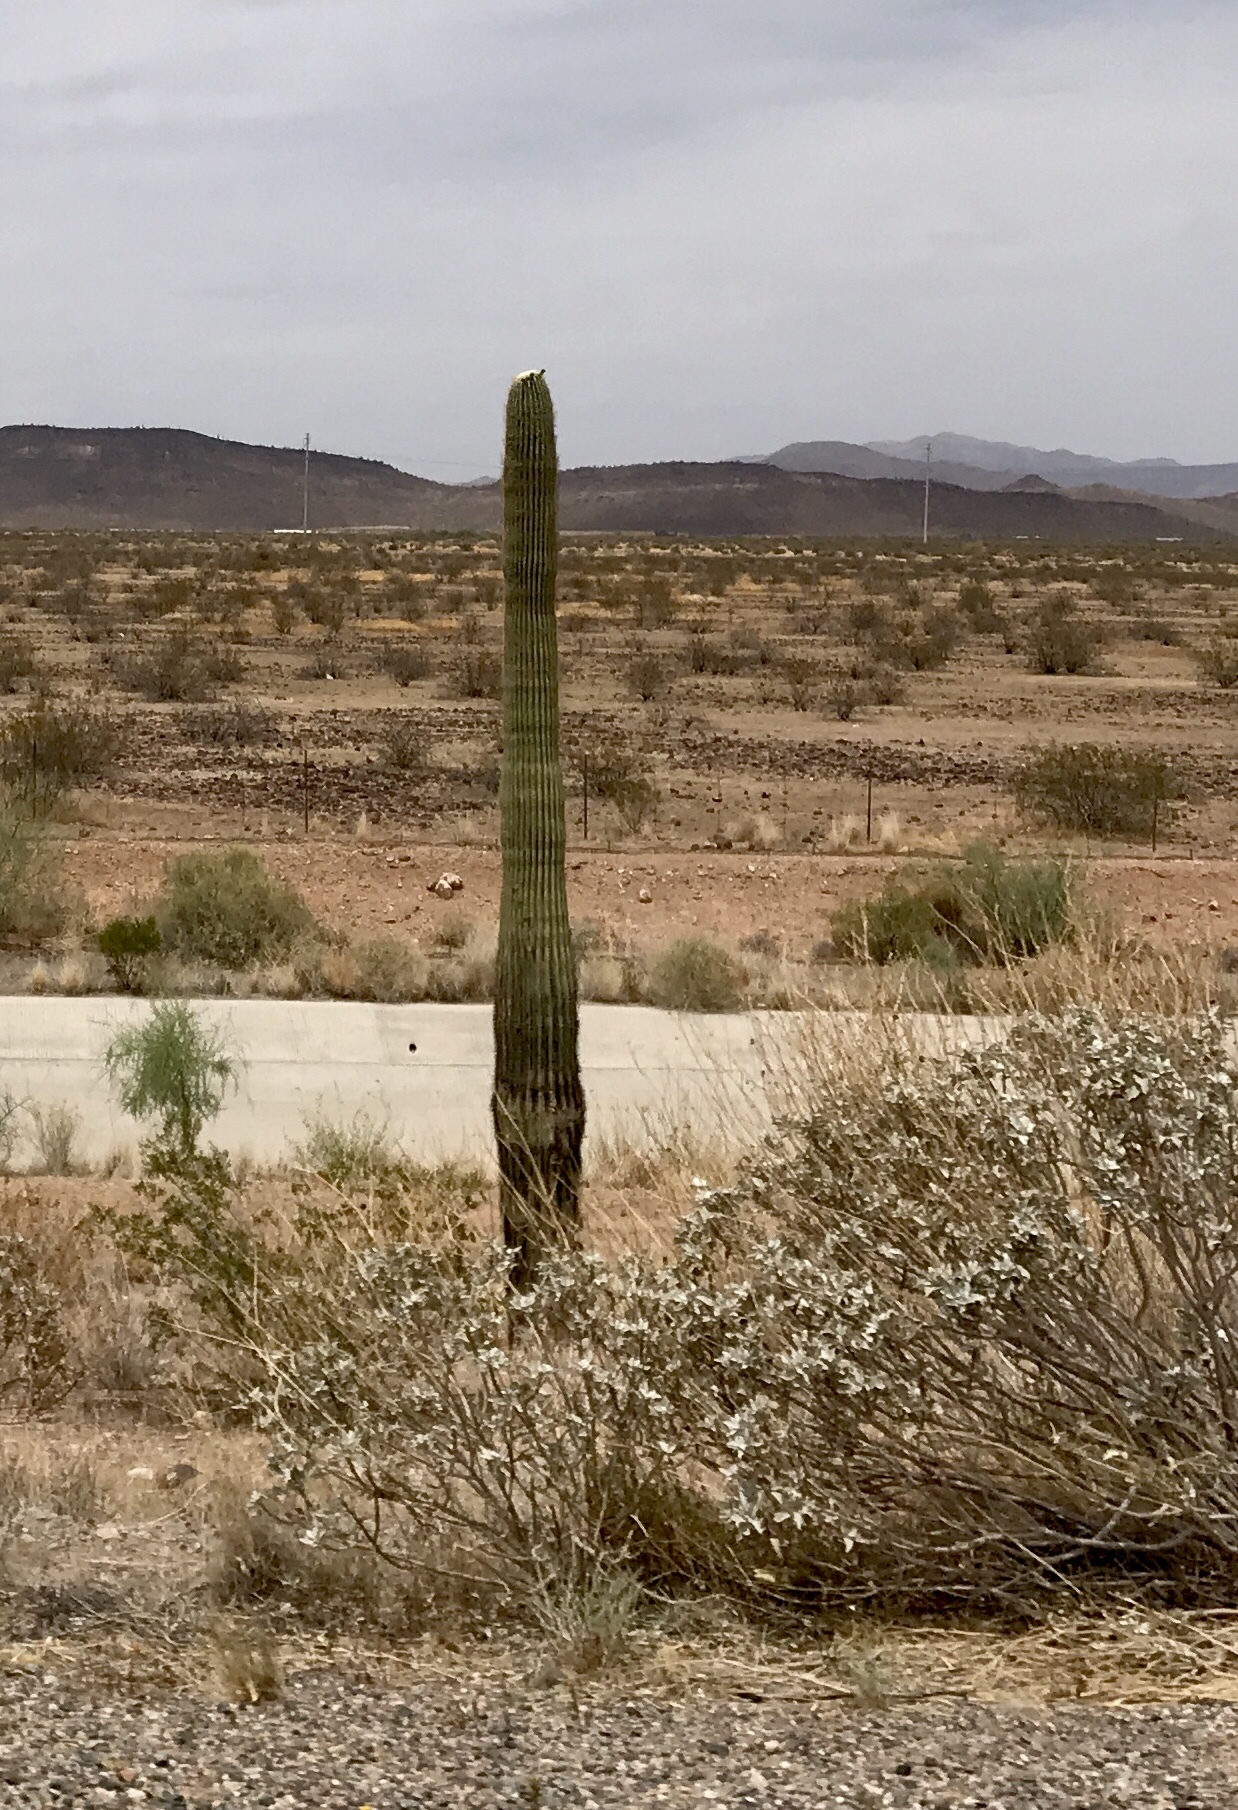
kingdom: Plantae
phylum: Tracheophyta
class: Magnoliopsida
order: Caryophyllales
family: Cactaceae
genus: Carnegiea
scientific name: Carnegiea gigantea
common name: Saguaro
